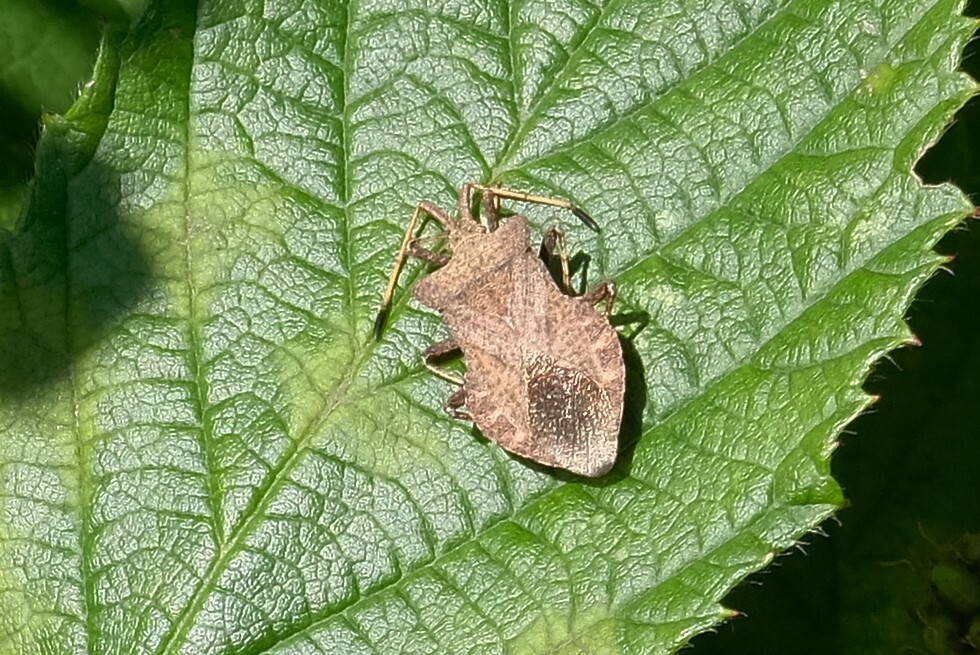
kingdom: Animalia
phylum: Arthropoda
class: Insecta
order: Hemiptera
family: Coreidae
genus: Coreus
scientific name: Coreus marginatus
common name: Dock bug
